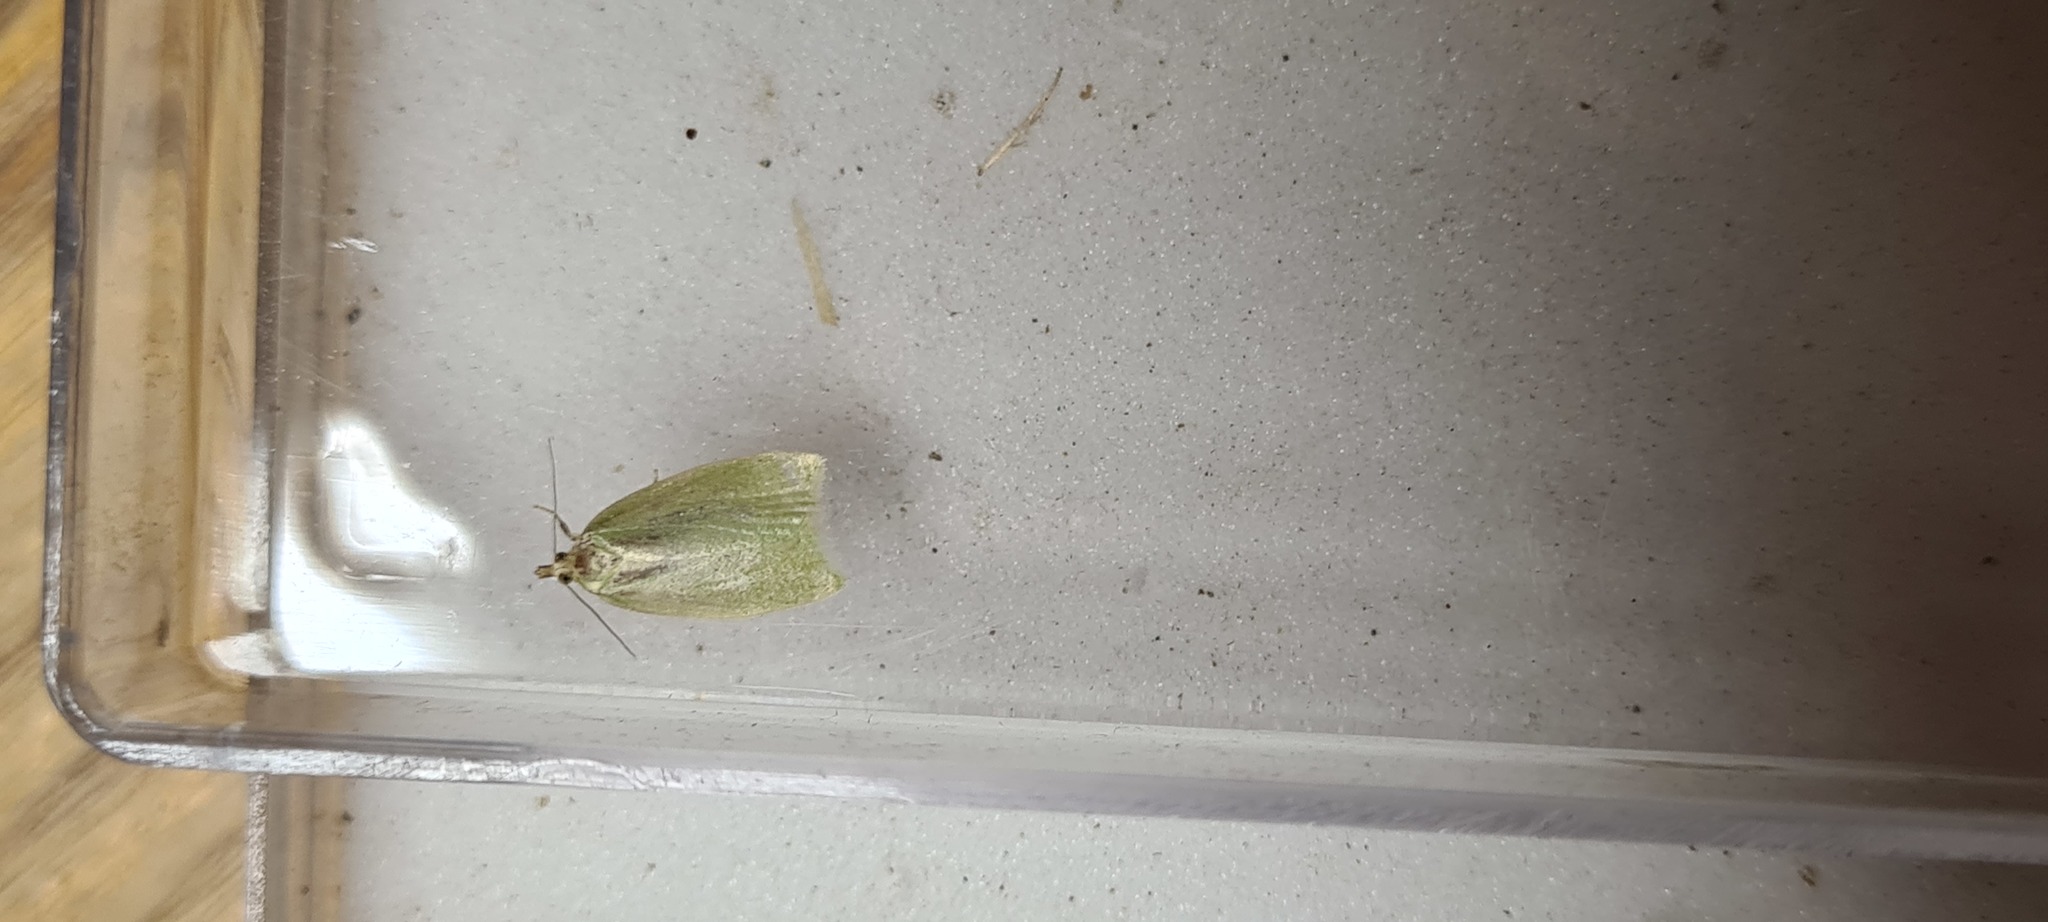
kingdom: Animalia
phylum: Arthropoda
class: Insecta
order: Lepidoptera
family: Tortricidae
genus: Tortrix
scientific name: Tortrix viridana
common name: Green oak tortrix
